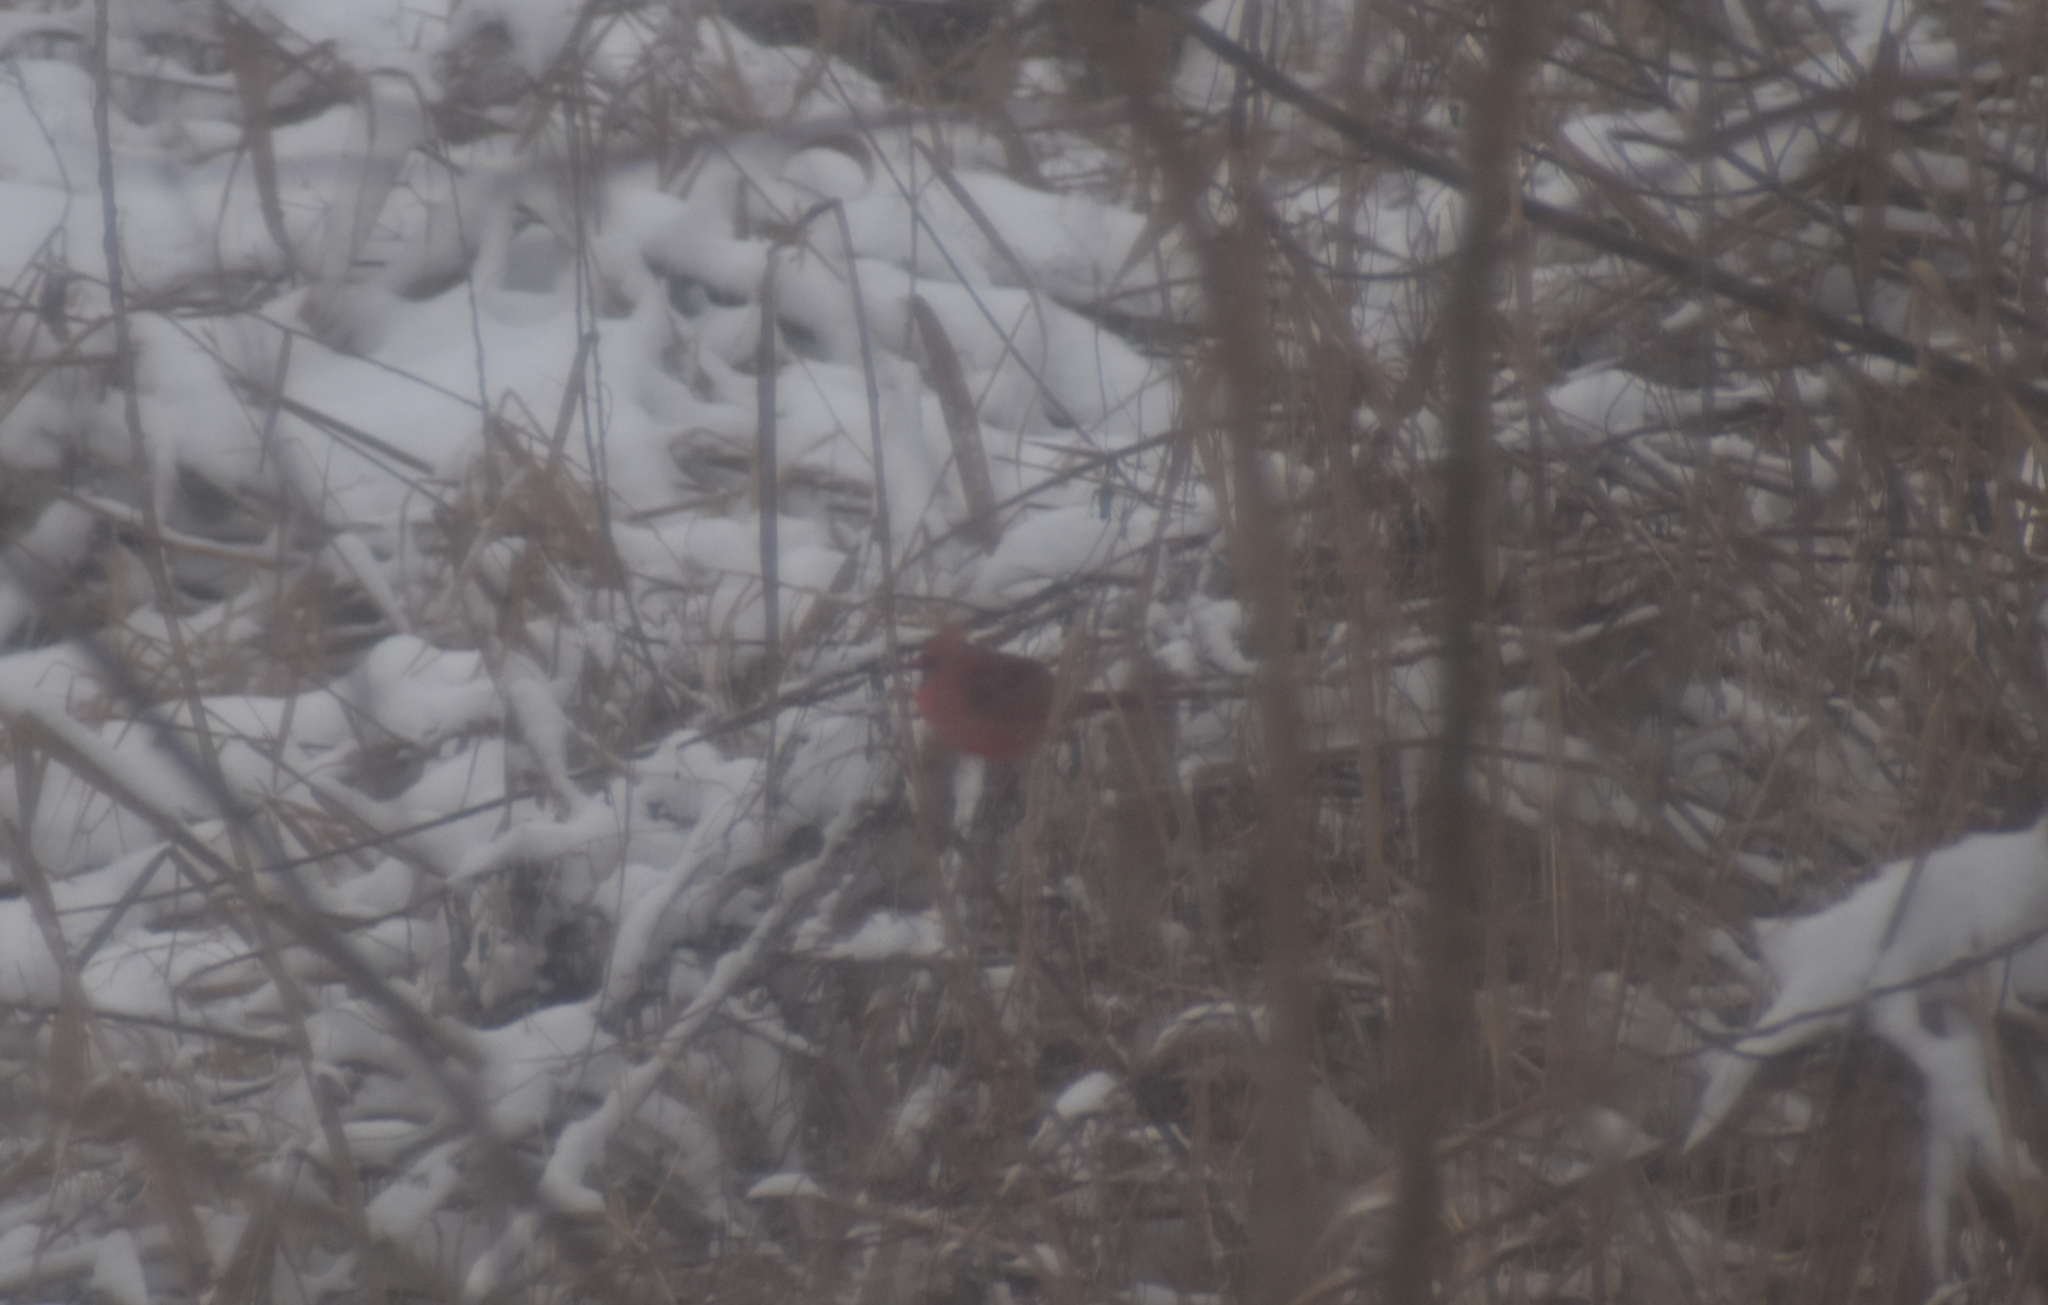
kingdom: Animalia
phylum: Chordata
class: Aves
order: Passeriformes
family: Cardinalidae
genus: Cardinalis
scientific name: Cardinalis cardinalis
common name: Northern cardinal
